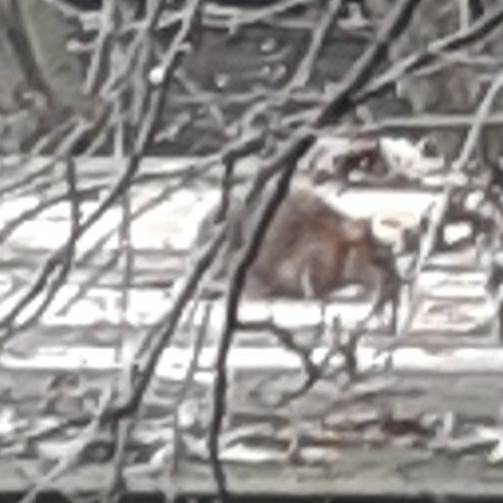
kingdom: Animalia
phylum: Chordata
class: Mammalia
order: Rodentia
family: Muridae
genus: Rattus
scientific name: Rattus norvegicus
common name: Brown rat
